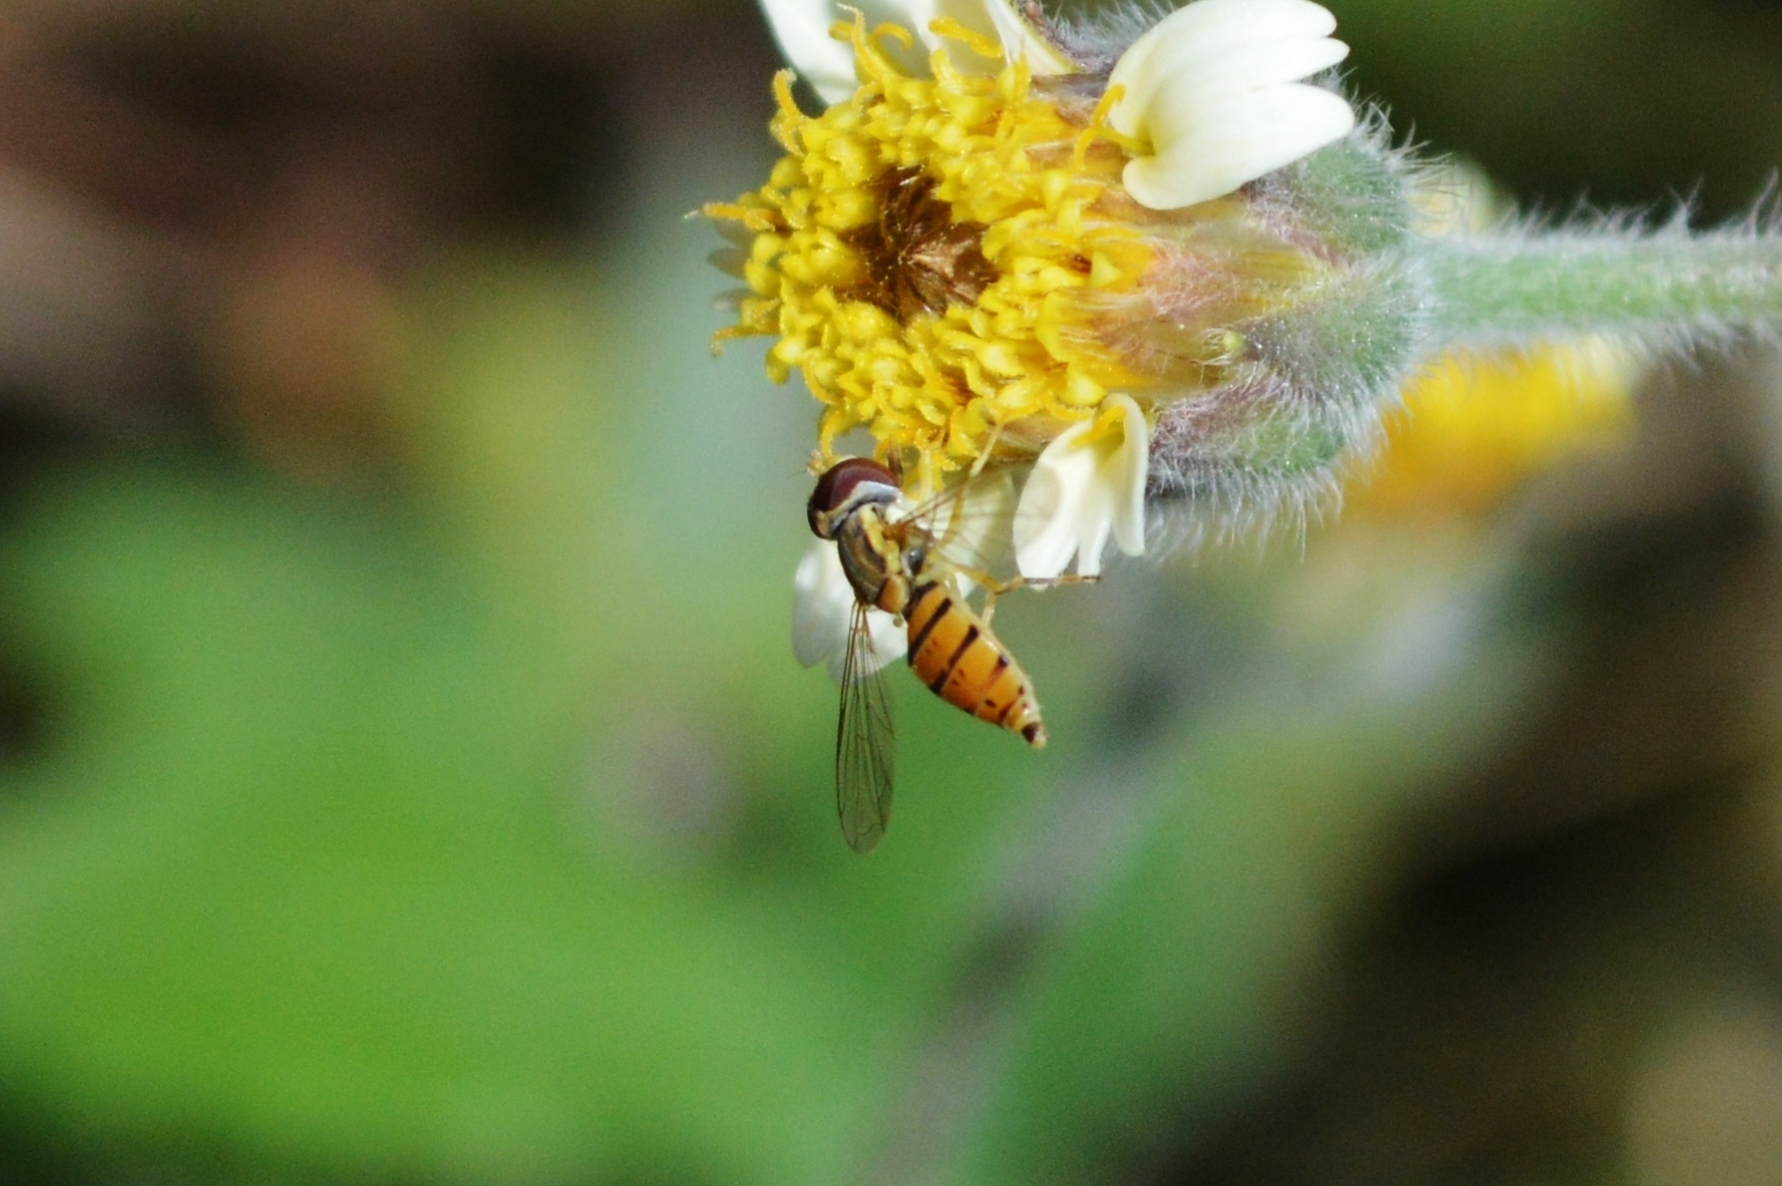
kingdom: Animalia
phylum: Arthropoda
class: Insecta
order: Diptera
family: Syrphidae
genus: Toxomerus
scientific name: Toxomerus
